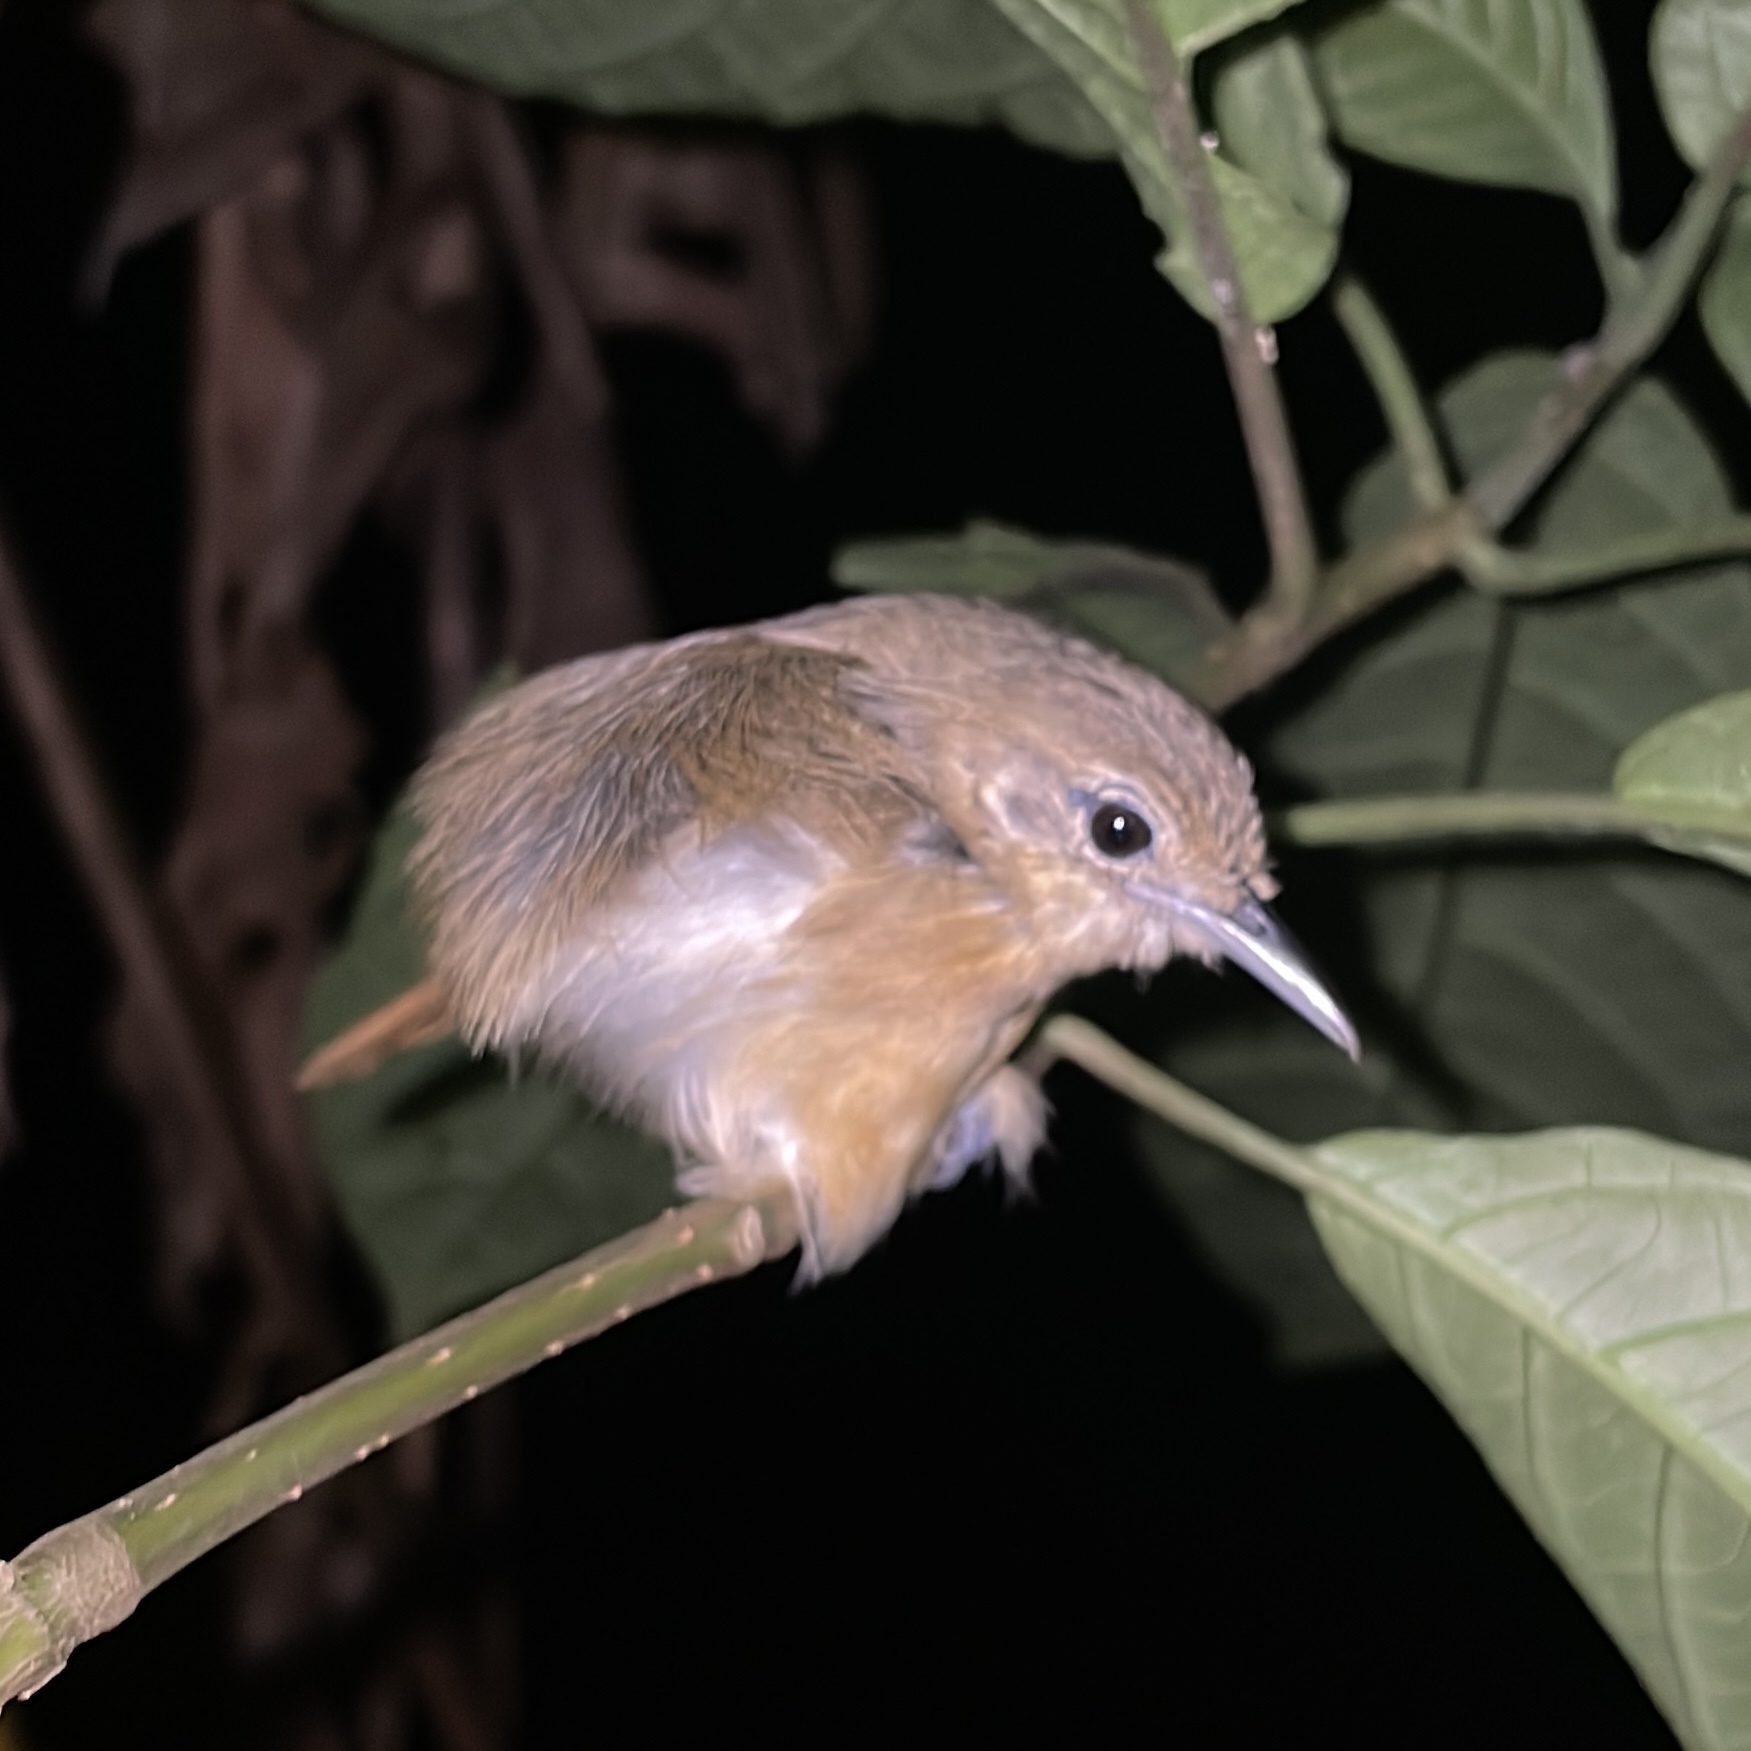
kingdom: Animalia
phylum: Chordata
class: Aves
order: Passeriformes
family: Polioptilidae
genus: Ramphocaenus
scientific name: Ramphocaenus melanurus
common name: Long-billed gnatwren
